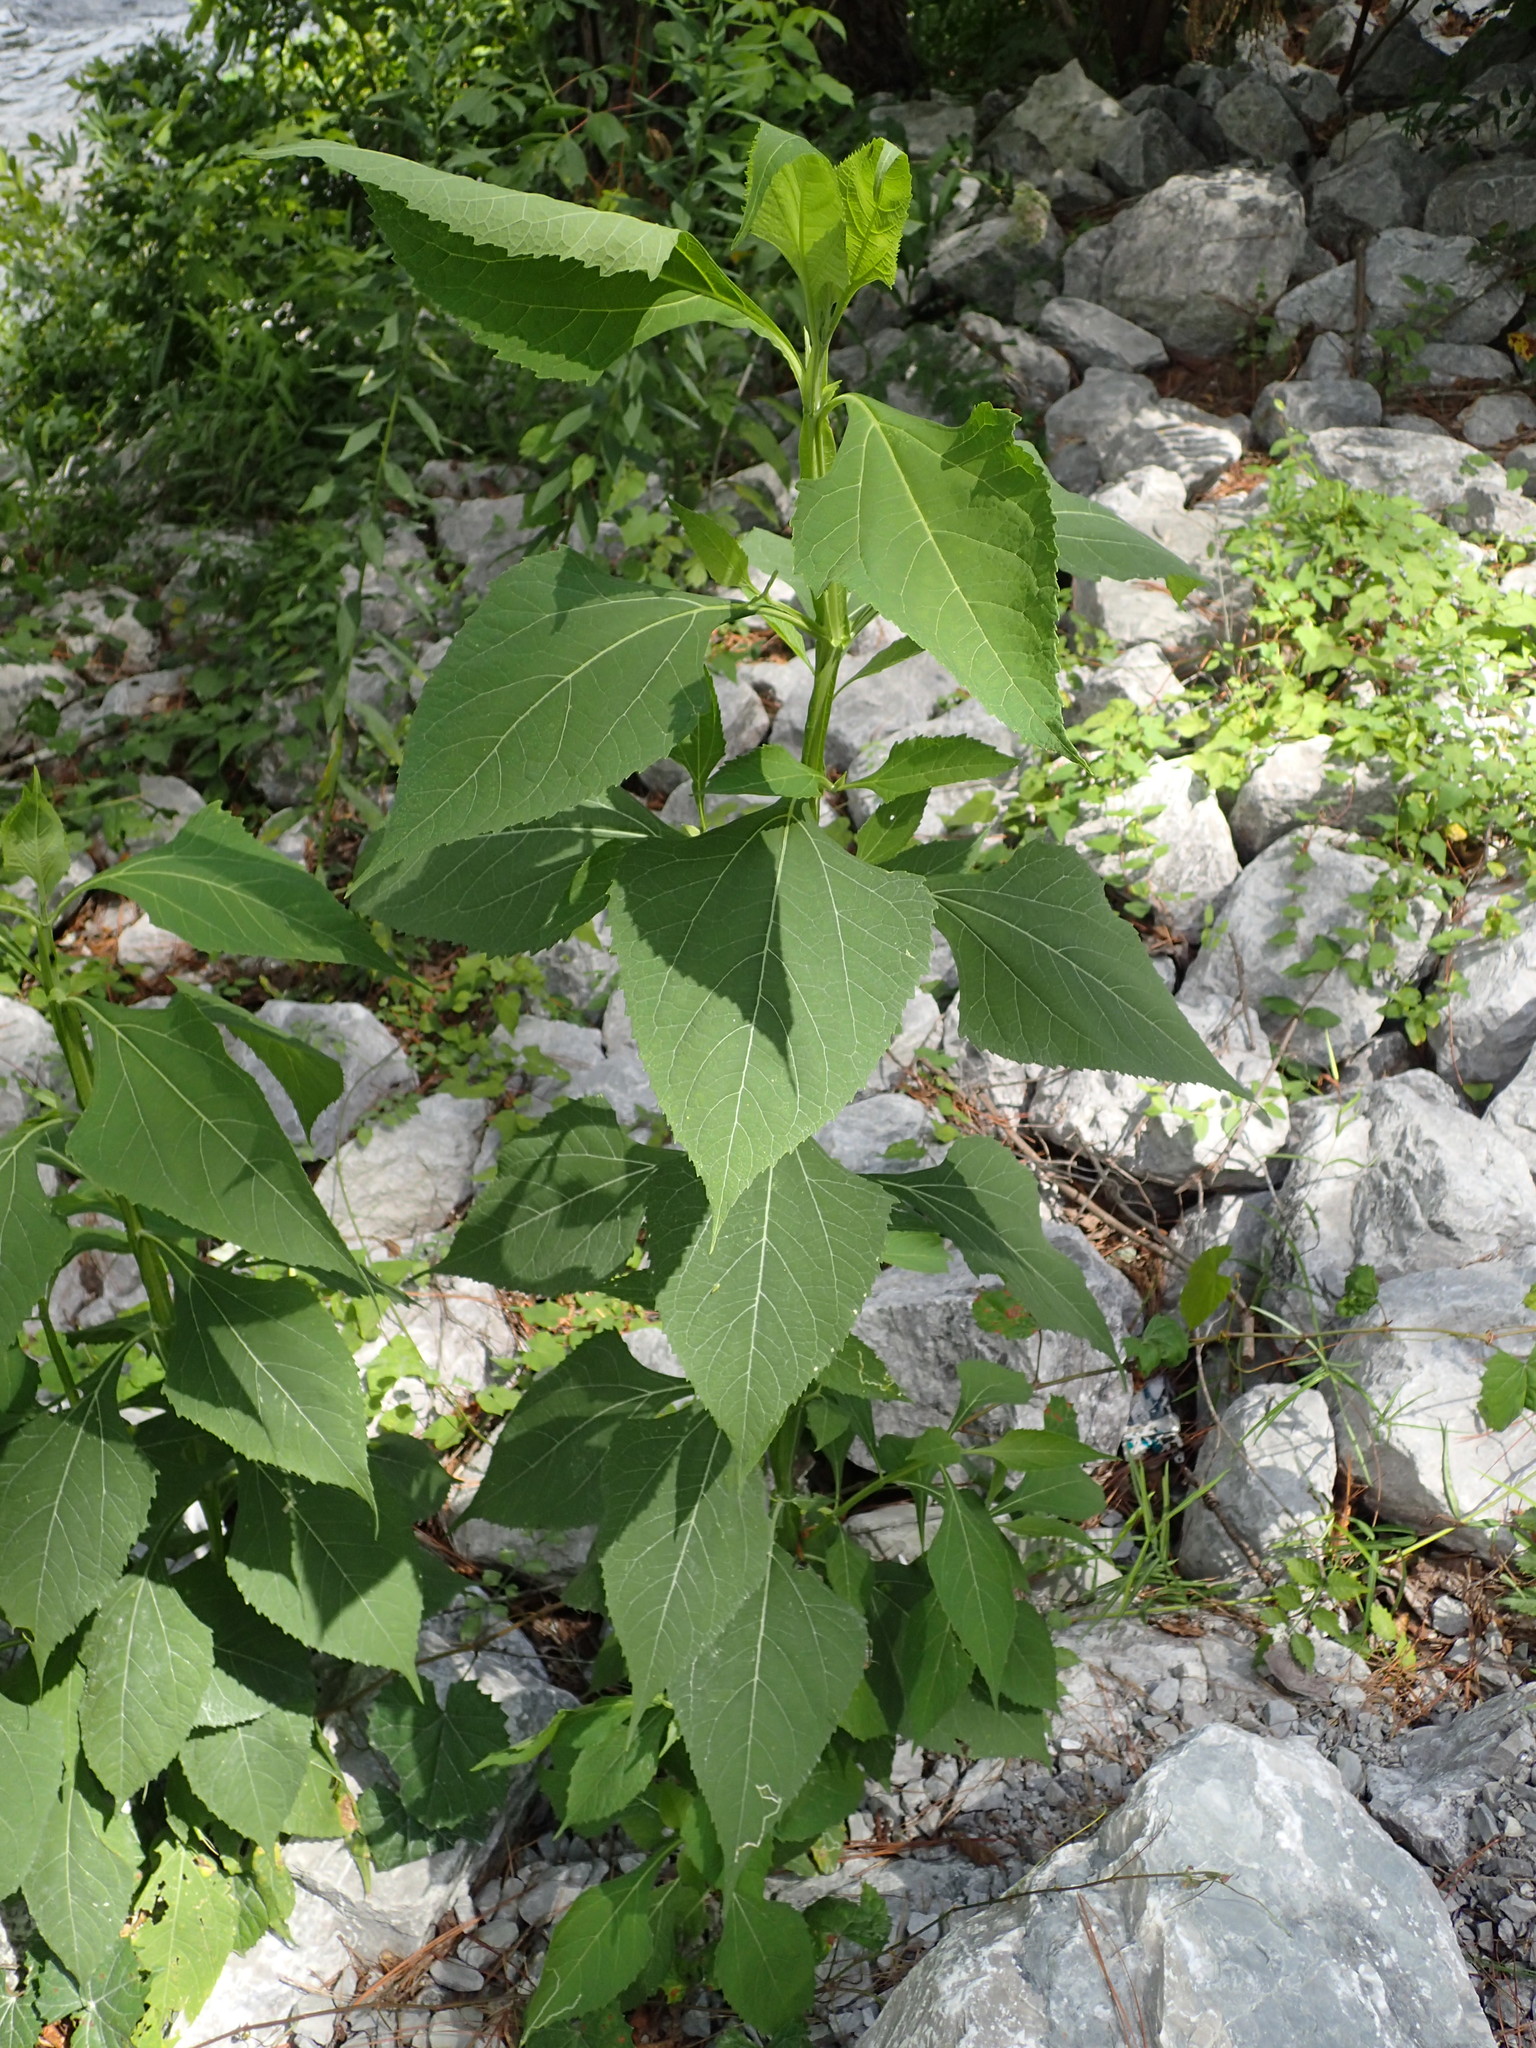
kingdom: Plantae
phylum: Tracheophyta
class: Magnoliopsida
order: Asterales
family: Asteraceae
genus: Verbesina
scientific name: Verbesina occidentalis
